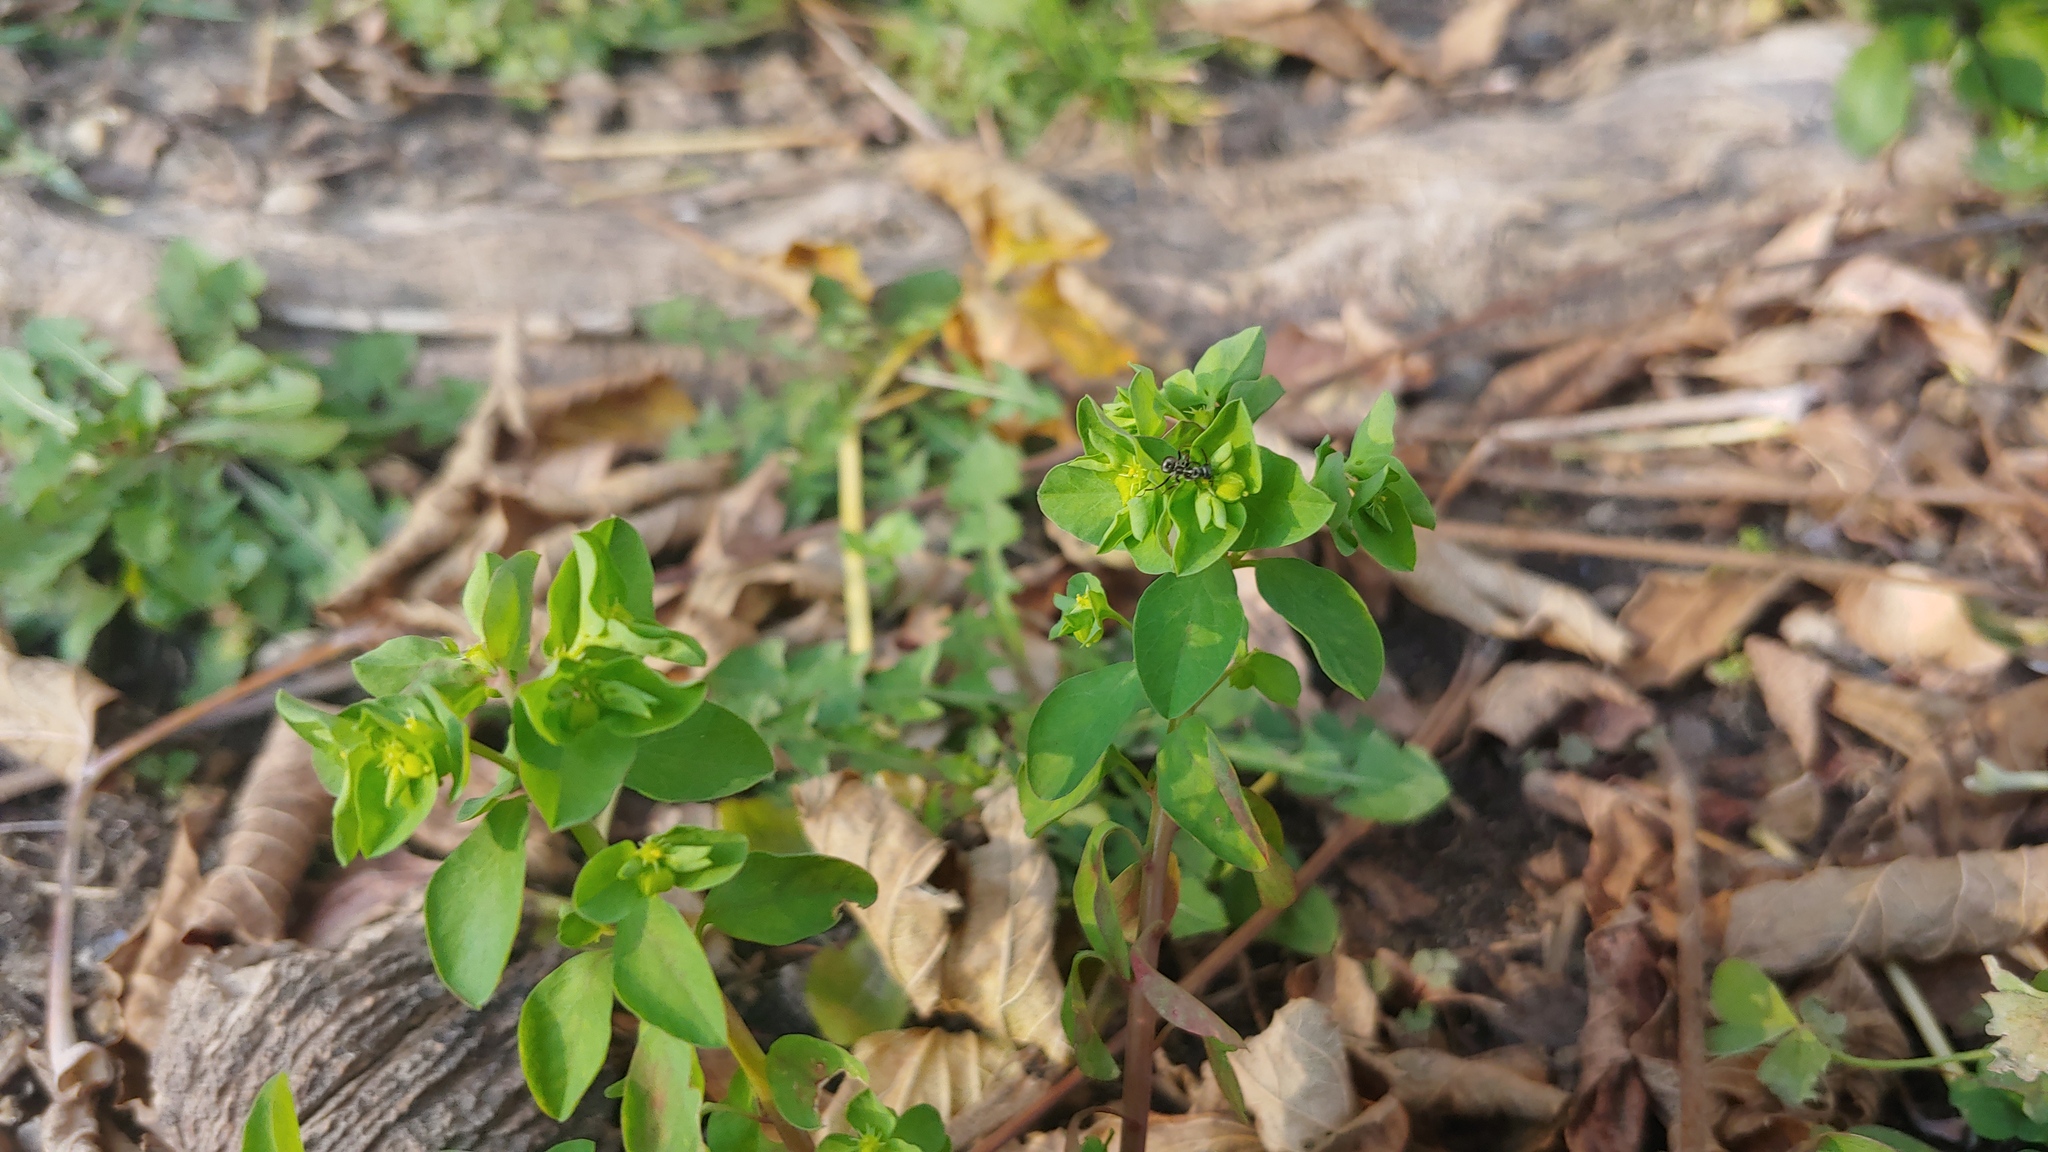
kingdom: Plantae
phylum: Tracheophyta
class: Magnoliopsida
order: Malpighiales
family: Euphorbiaceae
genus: Euphorbia
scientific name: Euphorbia peplus
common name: Petty spurge
